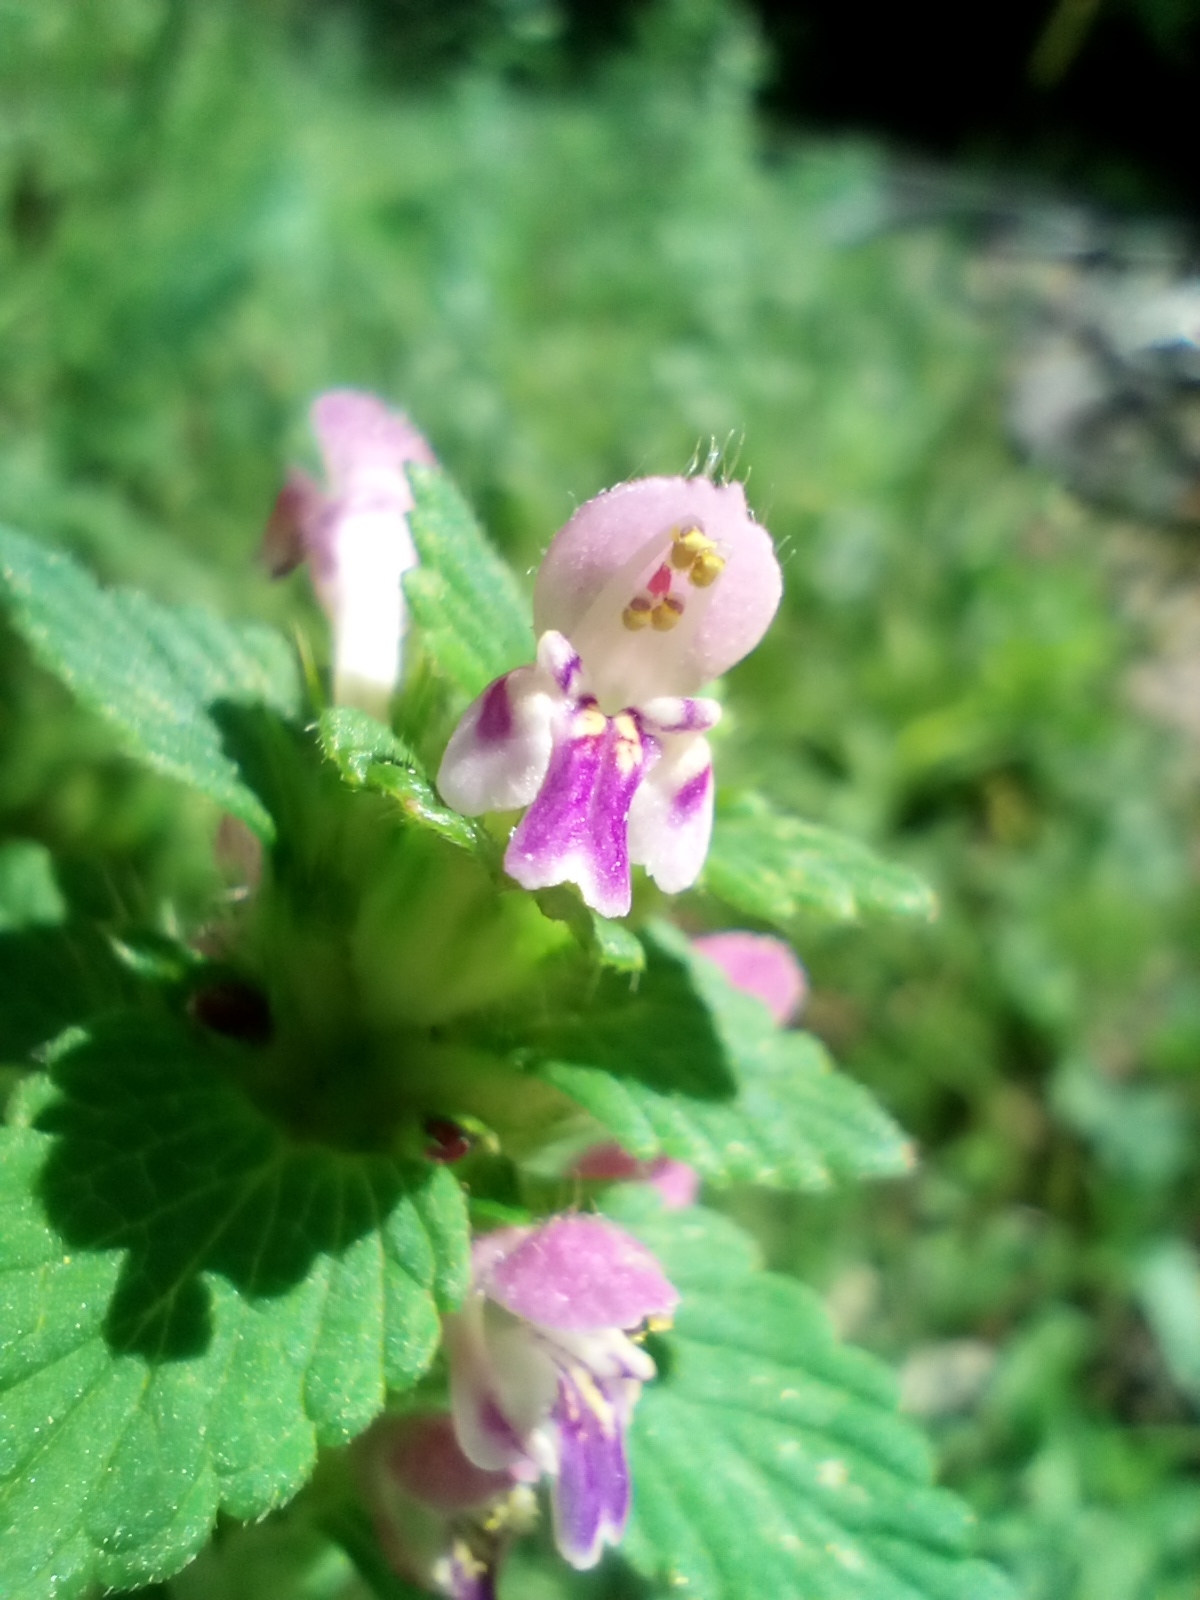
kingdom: Plantae
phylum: Tracheophyta
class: Magnoliopsida
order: Lamiales
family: Lamiaceae
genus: Galeopsis
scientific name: Galeopsis bifida
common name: Bifid hemp-nettle
